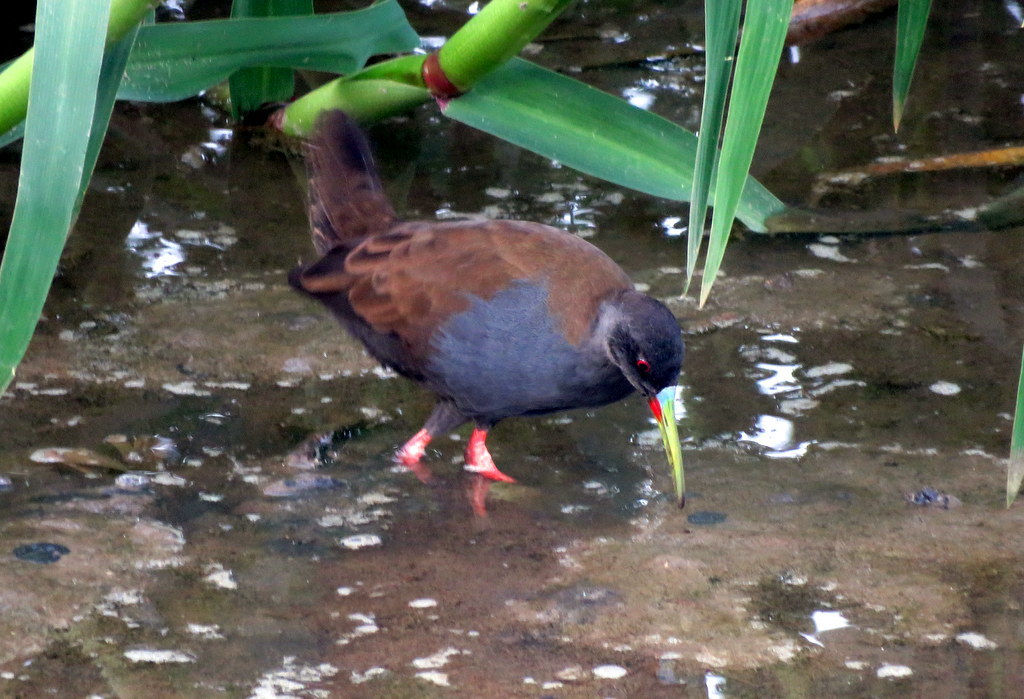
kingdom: Animalia
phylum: Chordata
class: Aves
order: Gruiformes
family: Rallidae
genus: Pardirallus
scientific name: Pardirallus sanguinolentus
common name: Plumbeous rail
